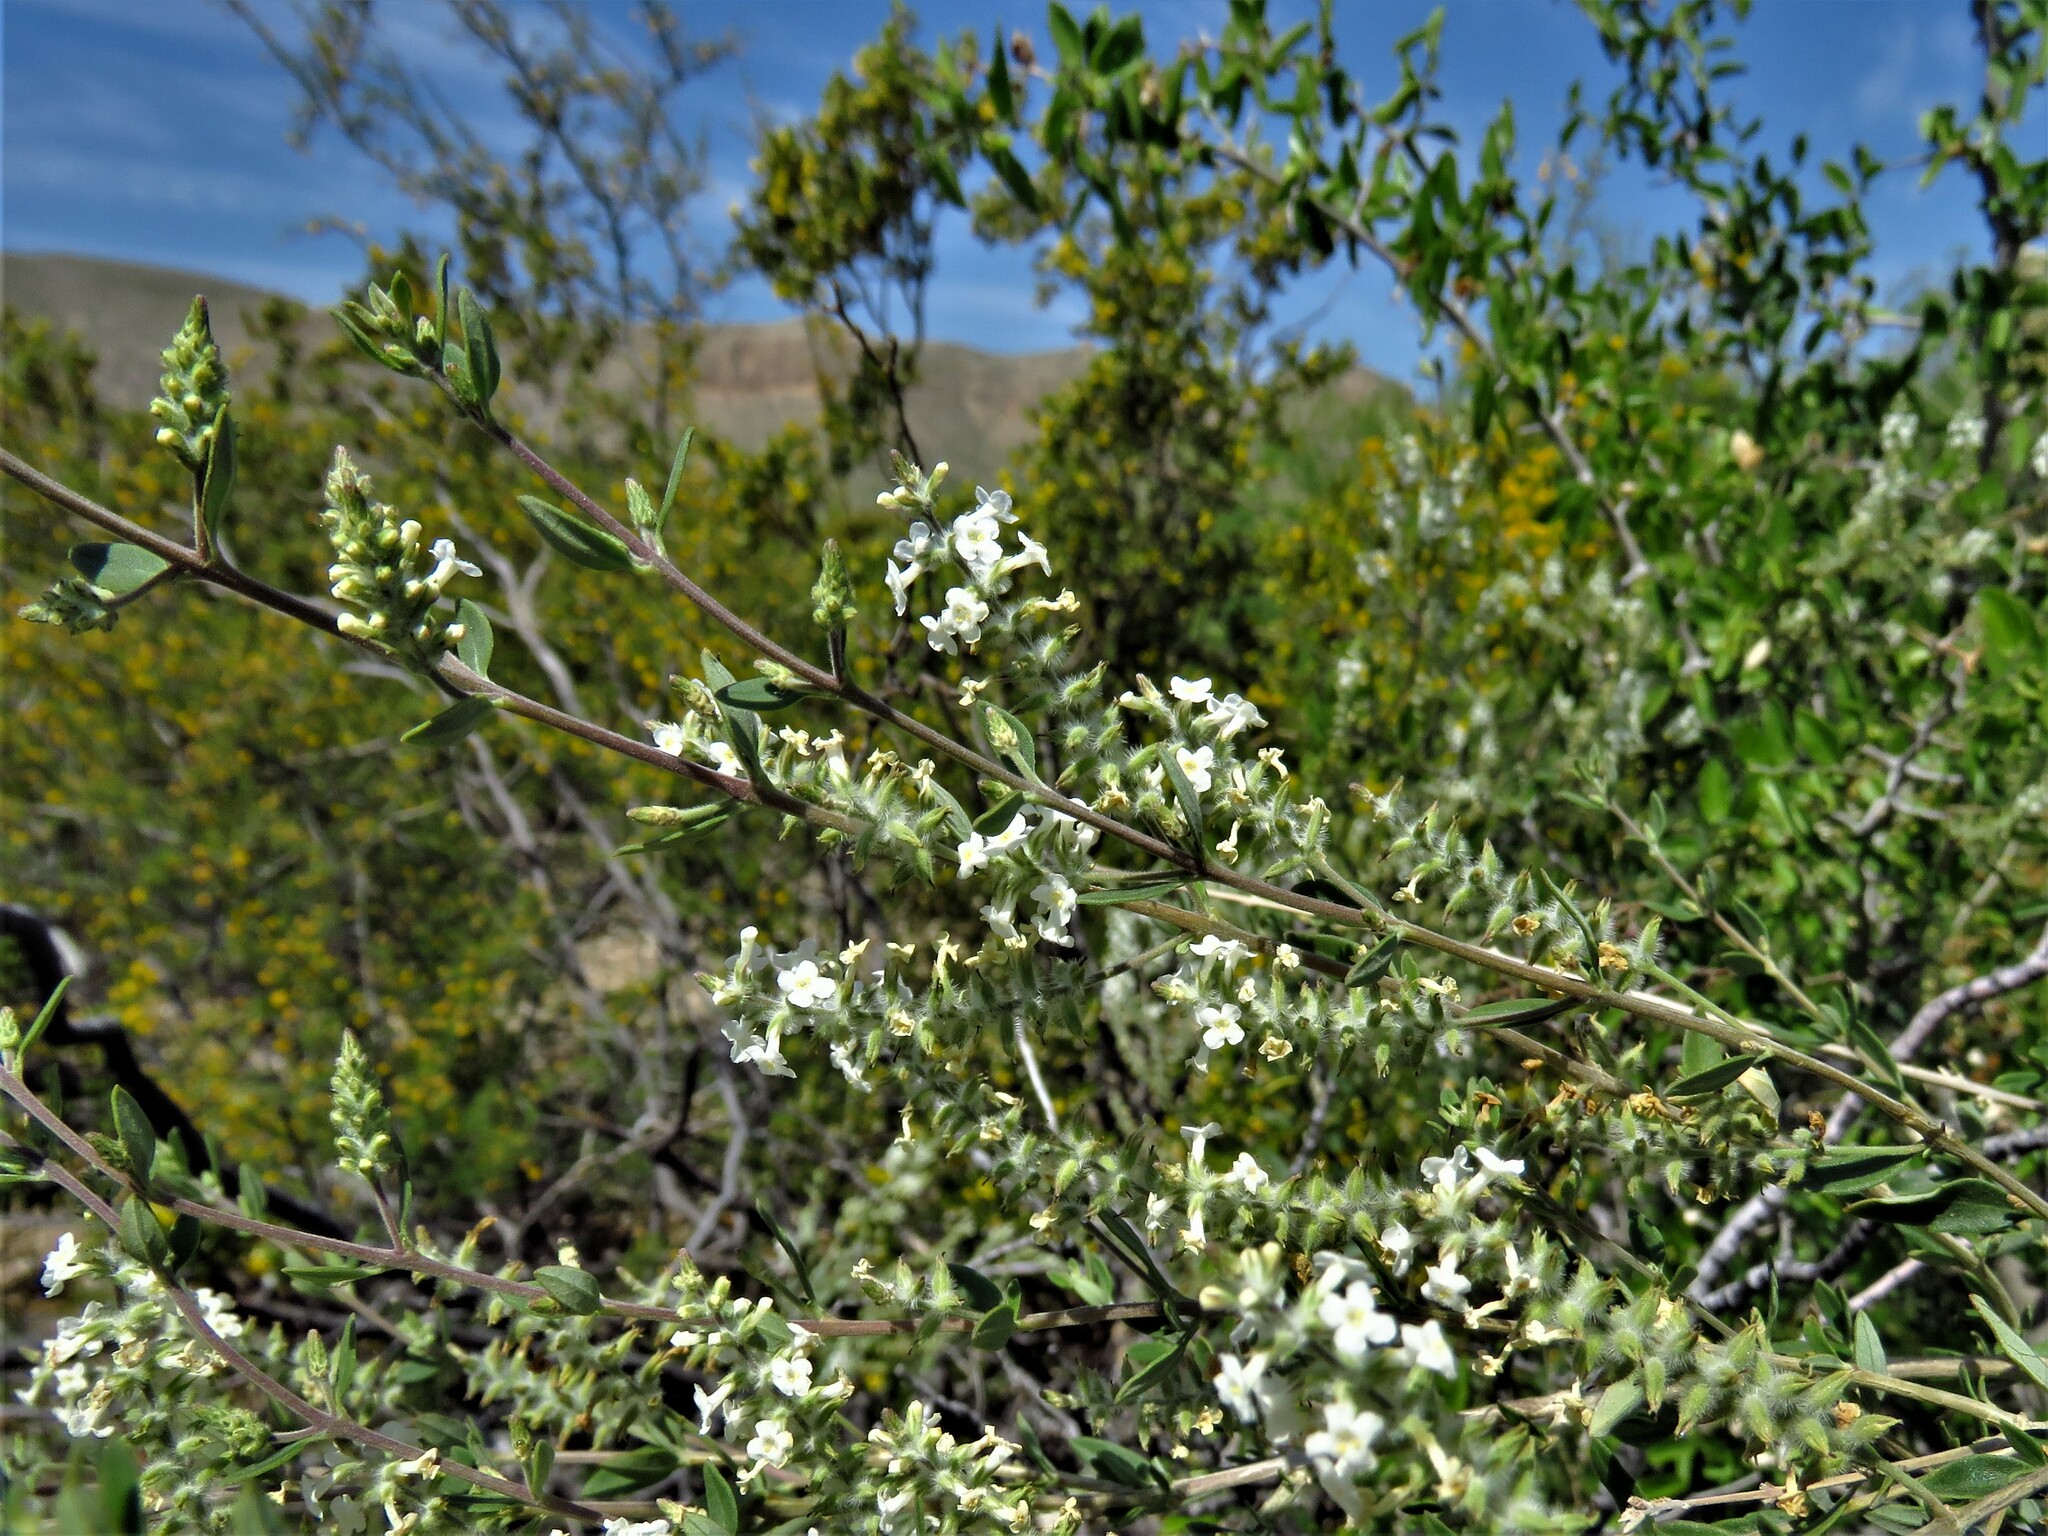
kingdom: Plantae
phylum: Tracheophyta
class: Magnoliopsida
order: Lamiales
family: Verbenaceae
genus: Aloysia
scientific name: Aloysia gratissima
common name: Common bee-brush
